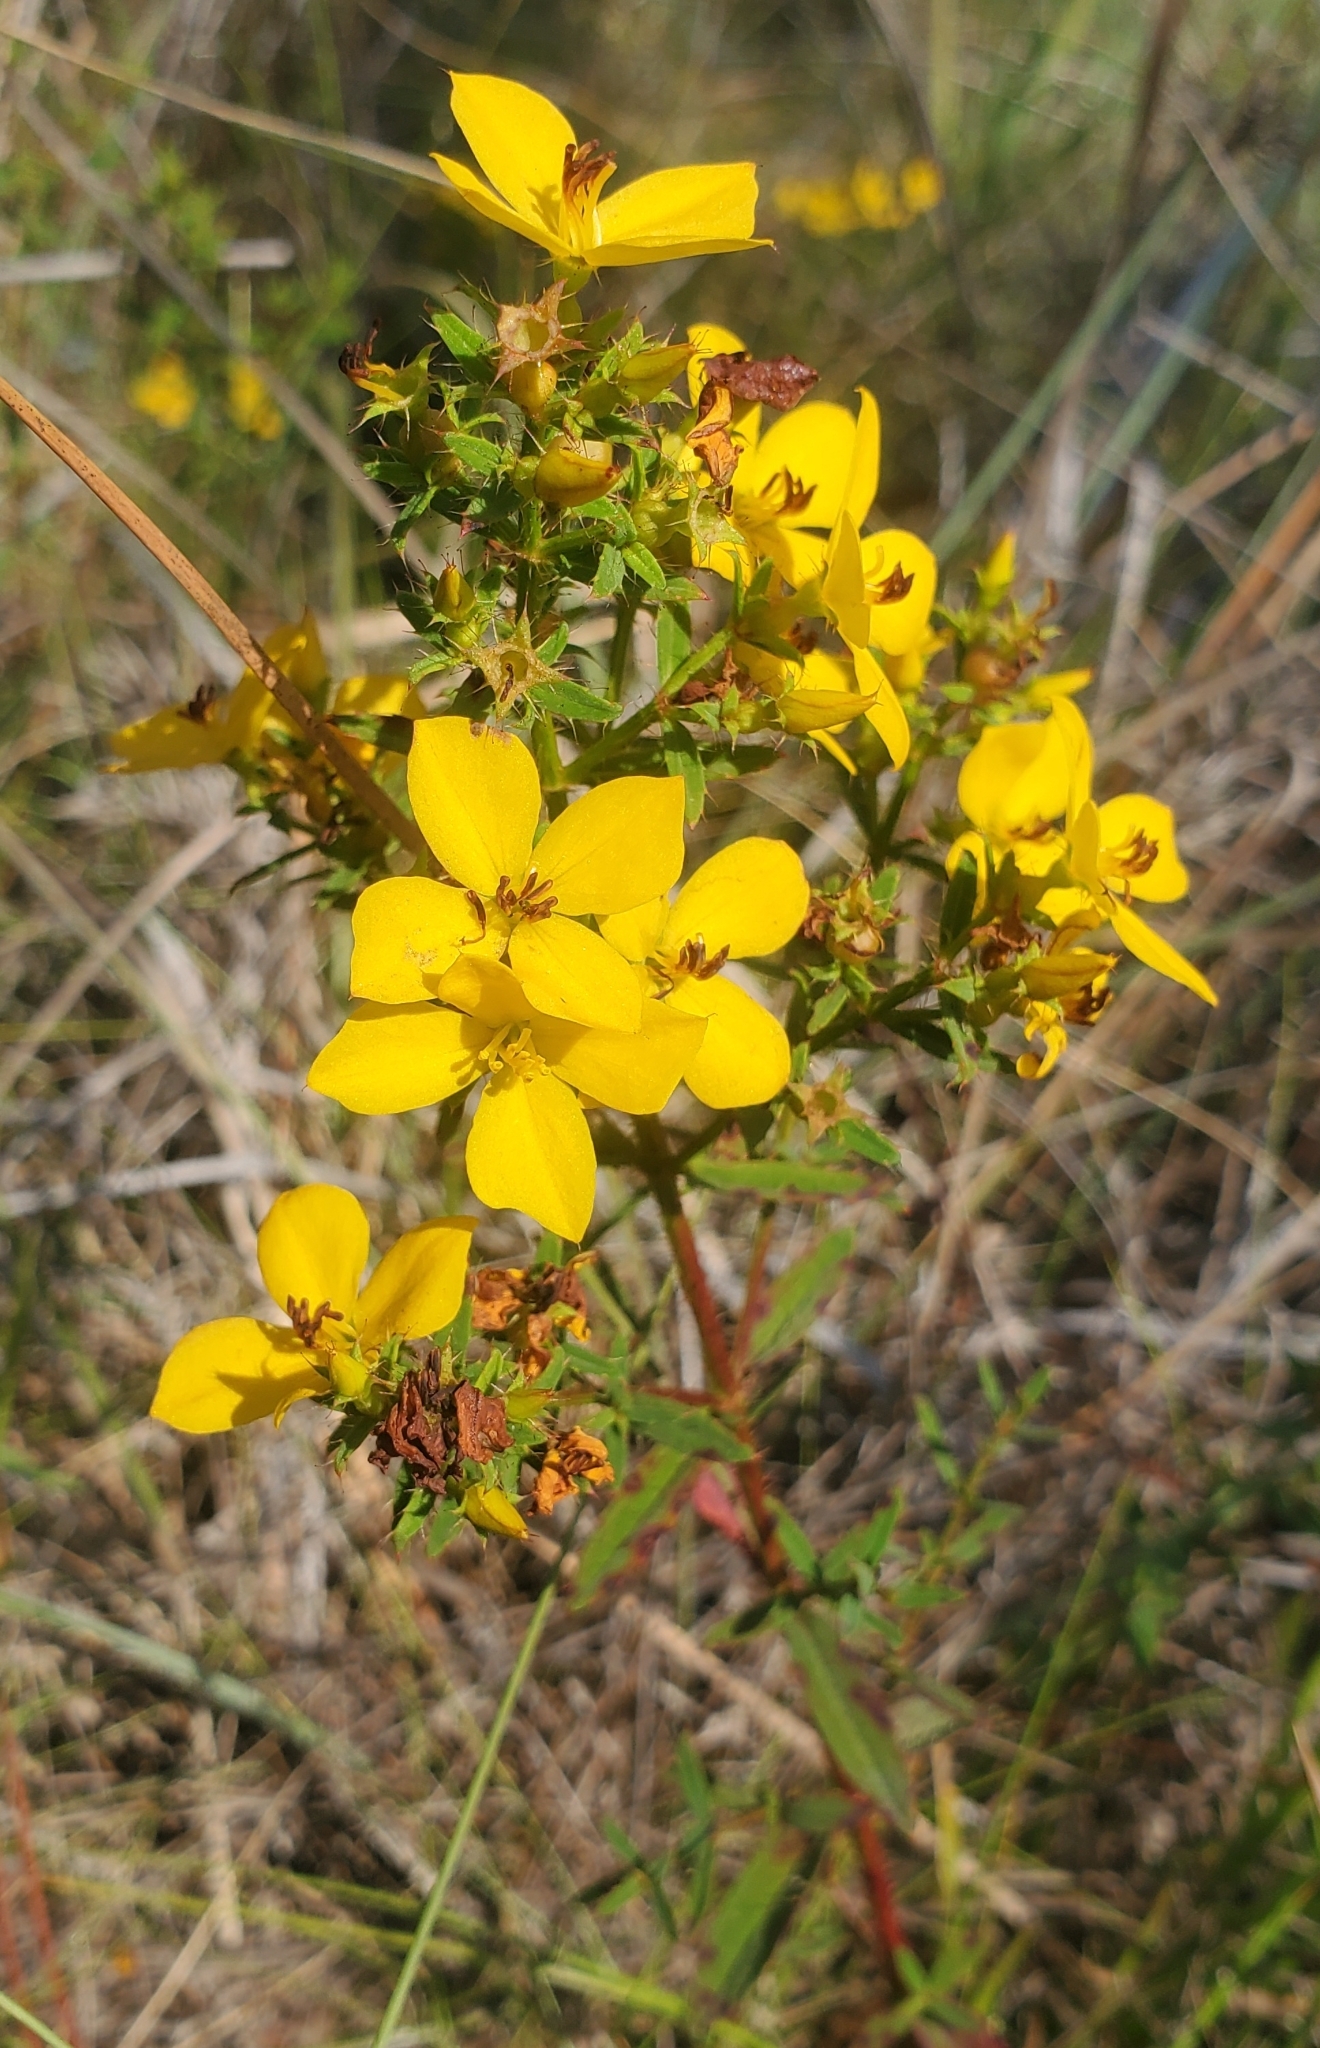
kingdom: Plantae
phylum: Tracheophyta
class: Magnoliopsida
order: Myrtales
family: Melastomataceae
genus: Rhexia
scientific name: Rhexia lutea
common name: Golden meadow-beauty
